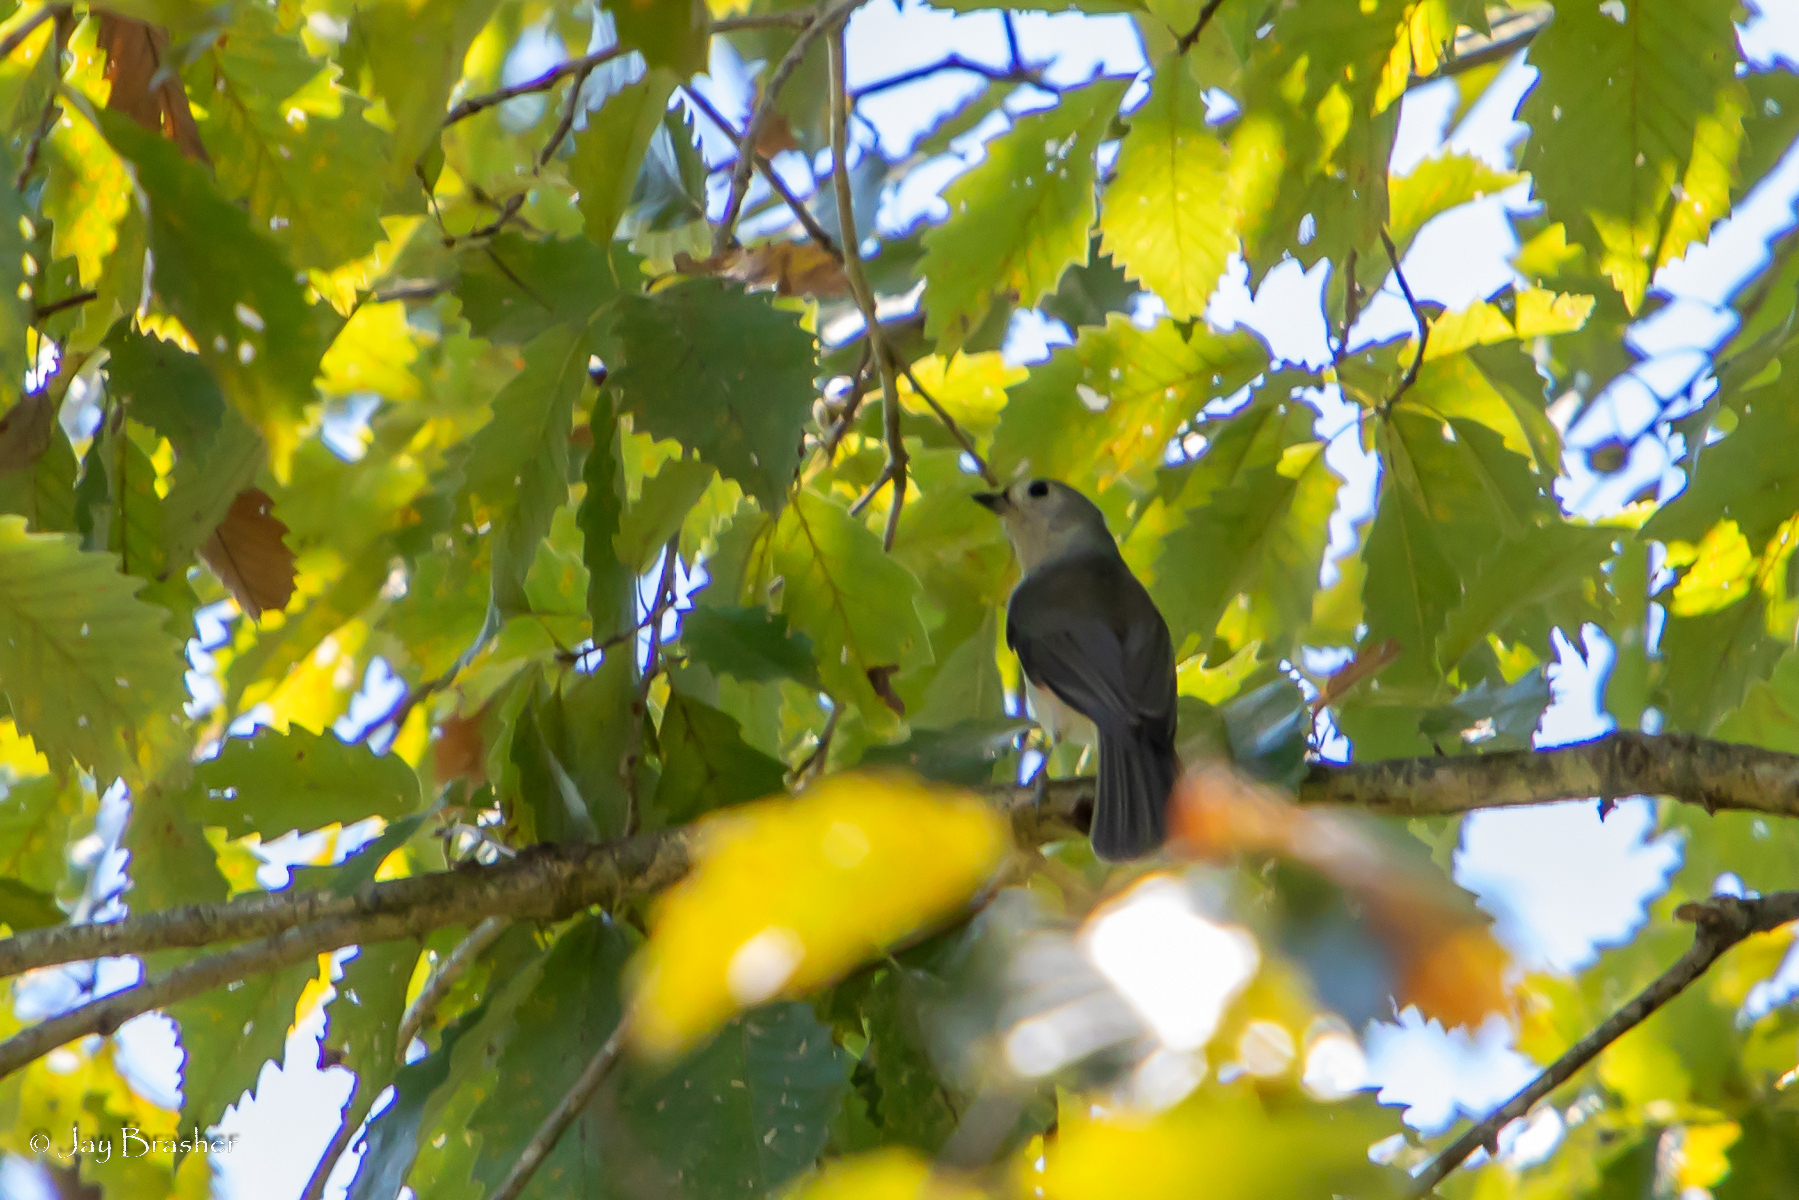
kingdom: Animalia
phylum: Chordata
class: Aves
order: Passeriformes
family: Paridae
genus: Baeolophus
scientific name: Baeolophus bicolor
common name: Tufted titmouse
